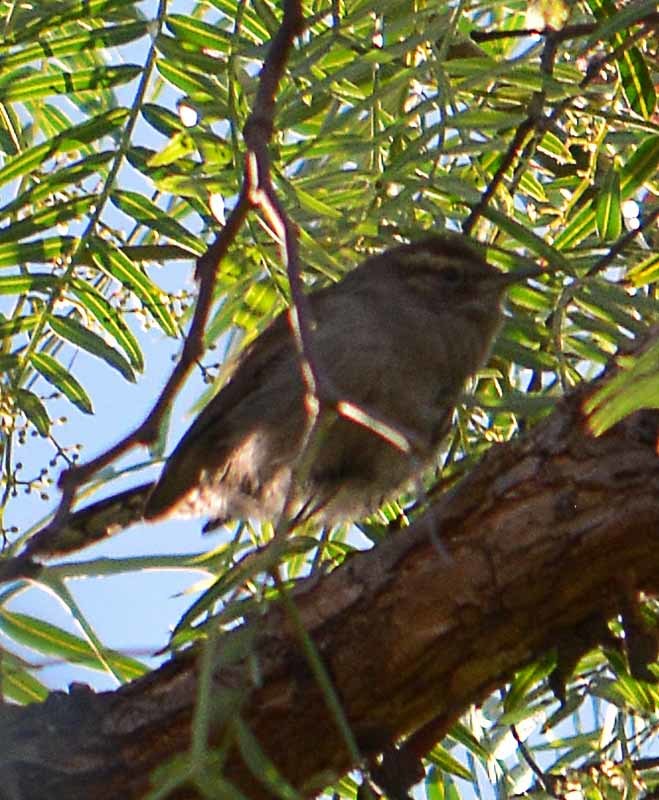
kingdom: Animalia
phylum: Chordata
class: Aves
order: Passeriformes
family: Troglodytidae
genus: Thryomanes
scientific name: Thryomanes bewickii
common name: Bewick's wren
